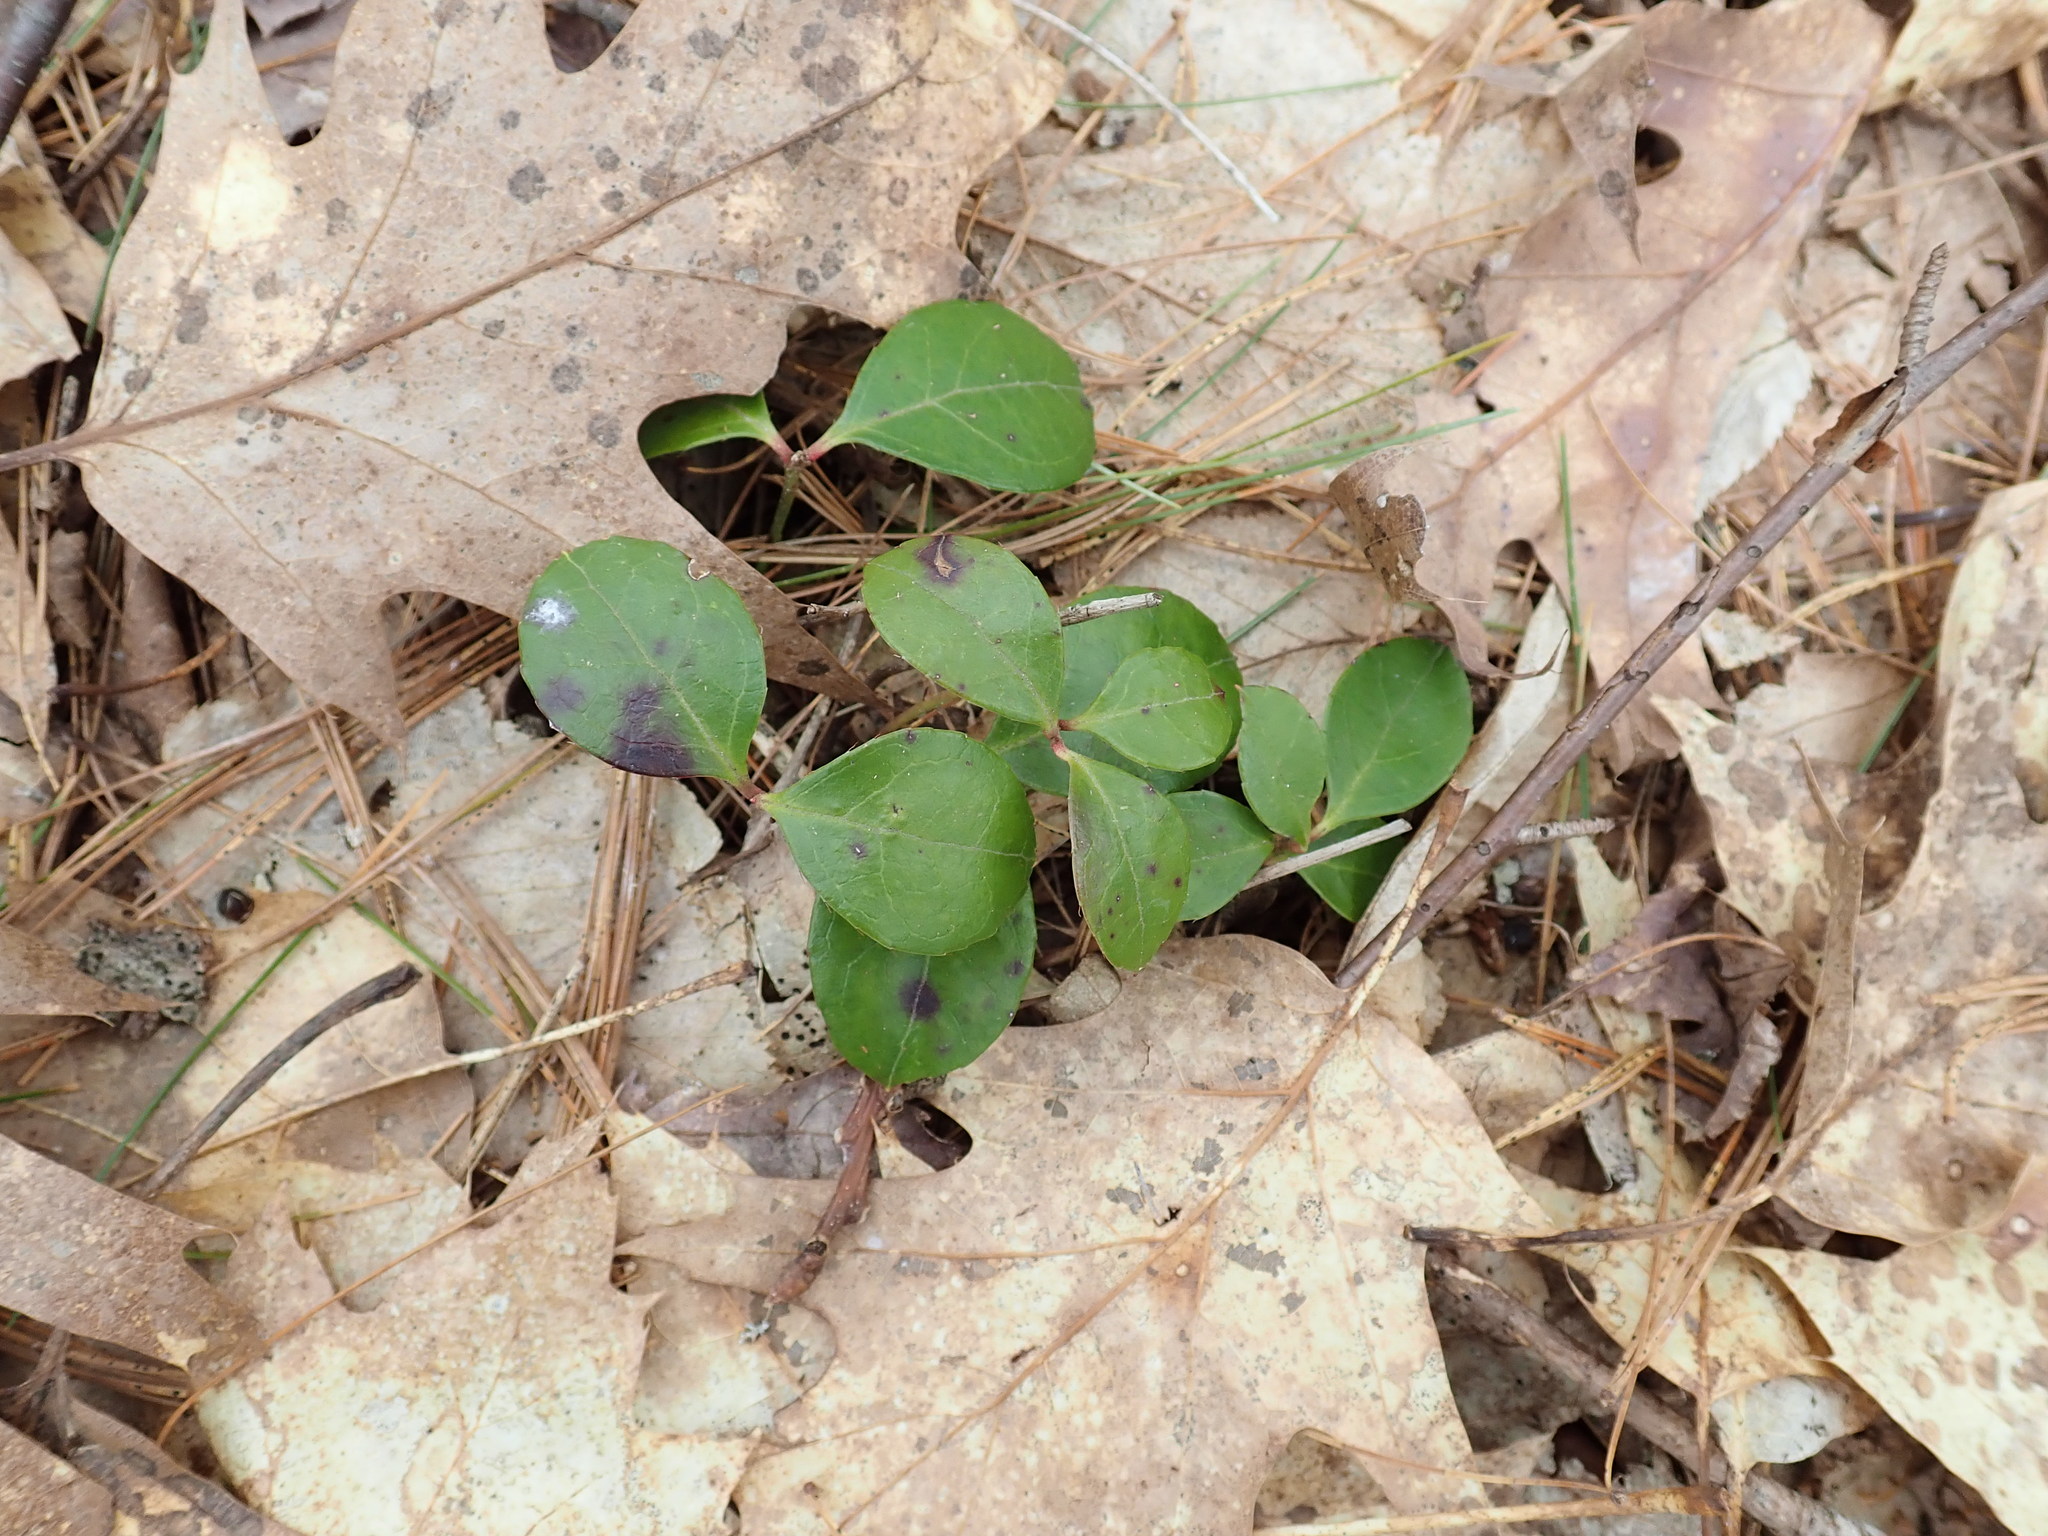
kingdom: Plantae
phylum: Tracheophyta
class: Magnoliopsida
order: Ericales
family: Ericaceae
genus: Gaultheria
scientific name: Gaultheria procumbens
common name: Checkerberry
